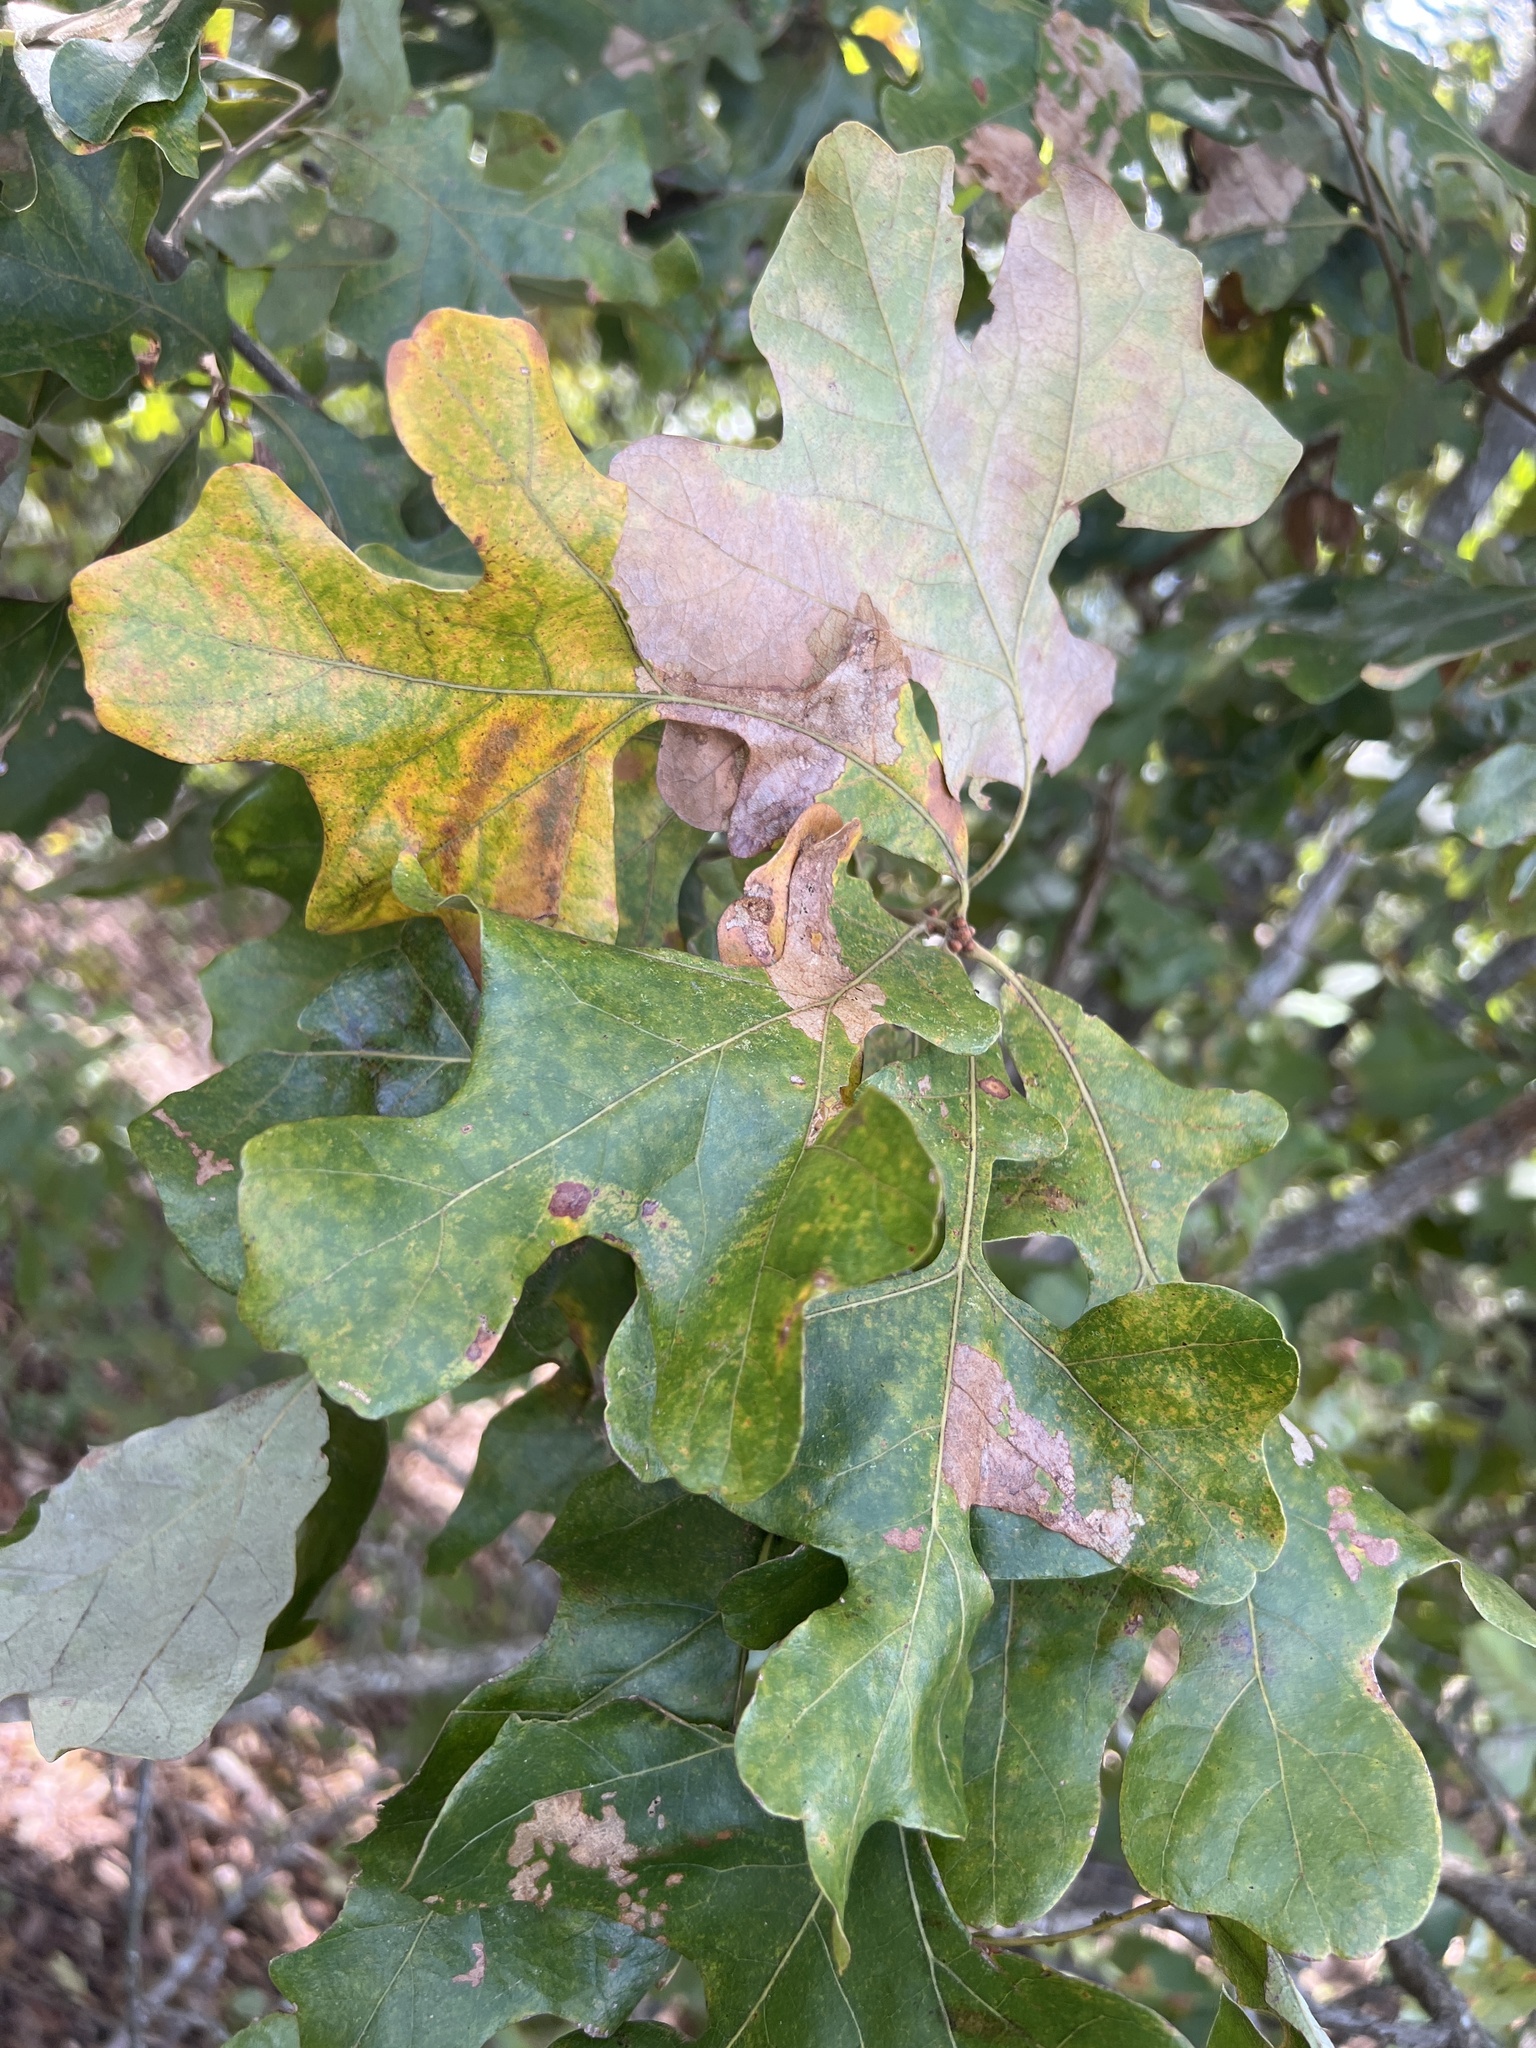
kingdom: Plantae
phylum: Tracheophyta
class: Magnoliopsida
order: Fagales
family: Fagaceae
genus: Quercus
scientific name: Quercus stellata
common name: Post oak
